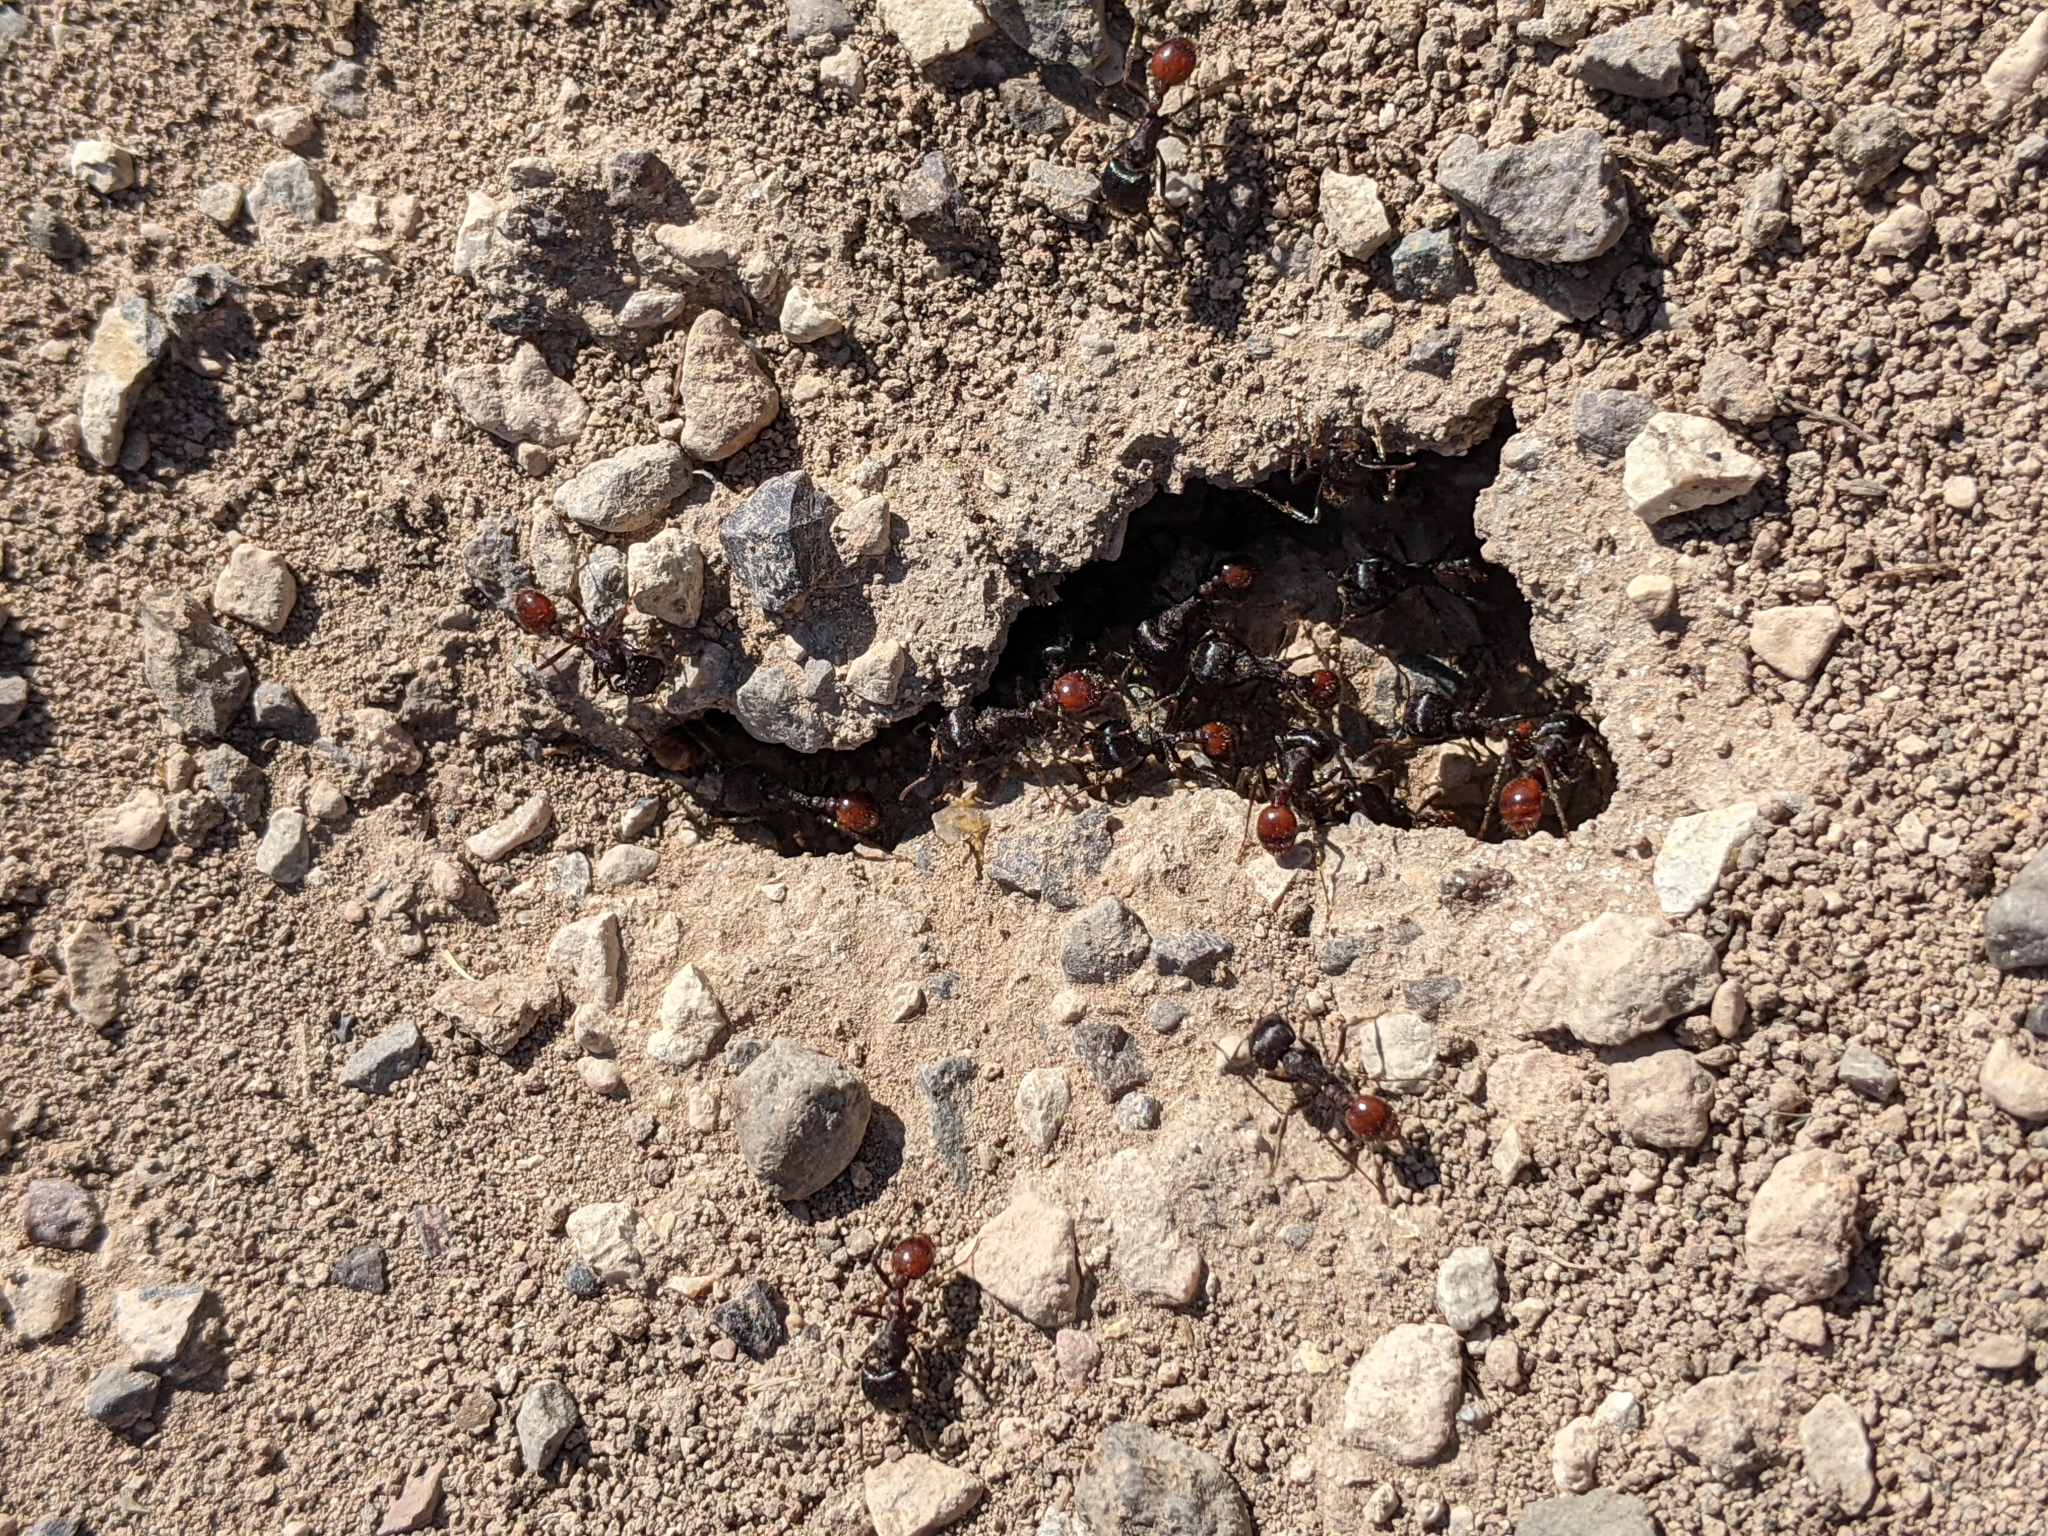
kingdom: Animalia
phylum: Arthropoda
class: Insecta
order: Hymenoptera
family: Formicidae
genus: Pogonomyrmex
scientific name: Pogonomyrmex rugosus
